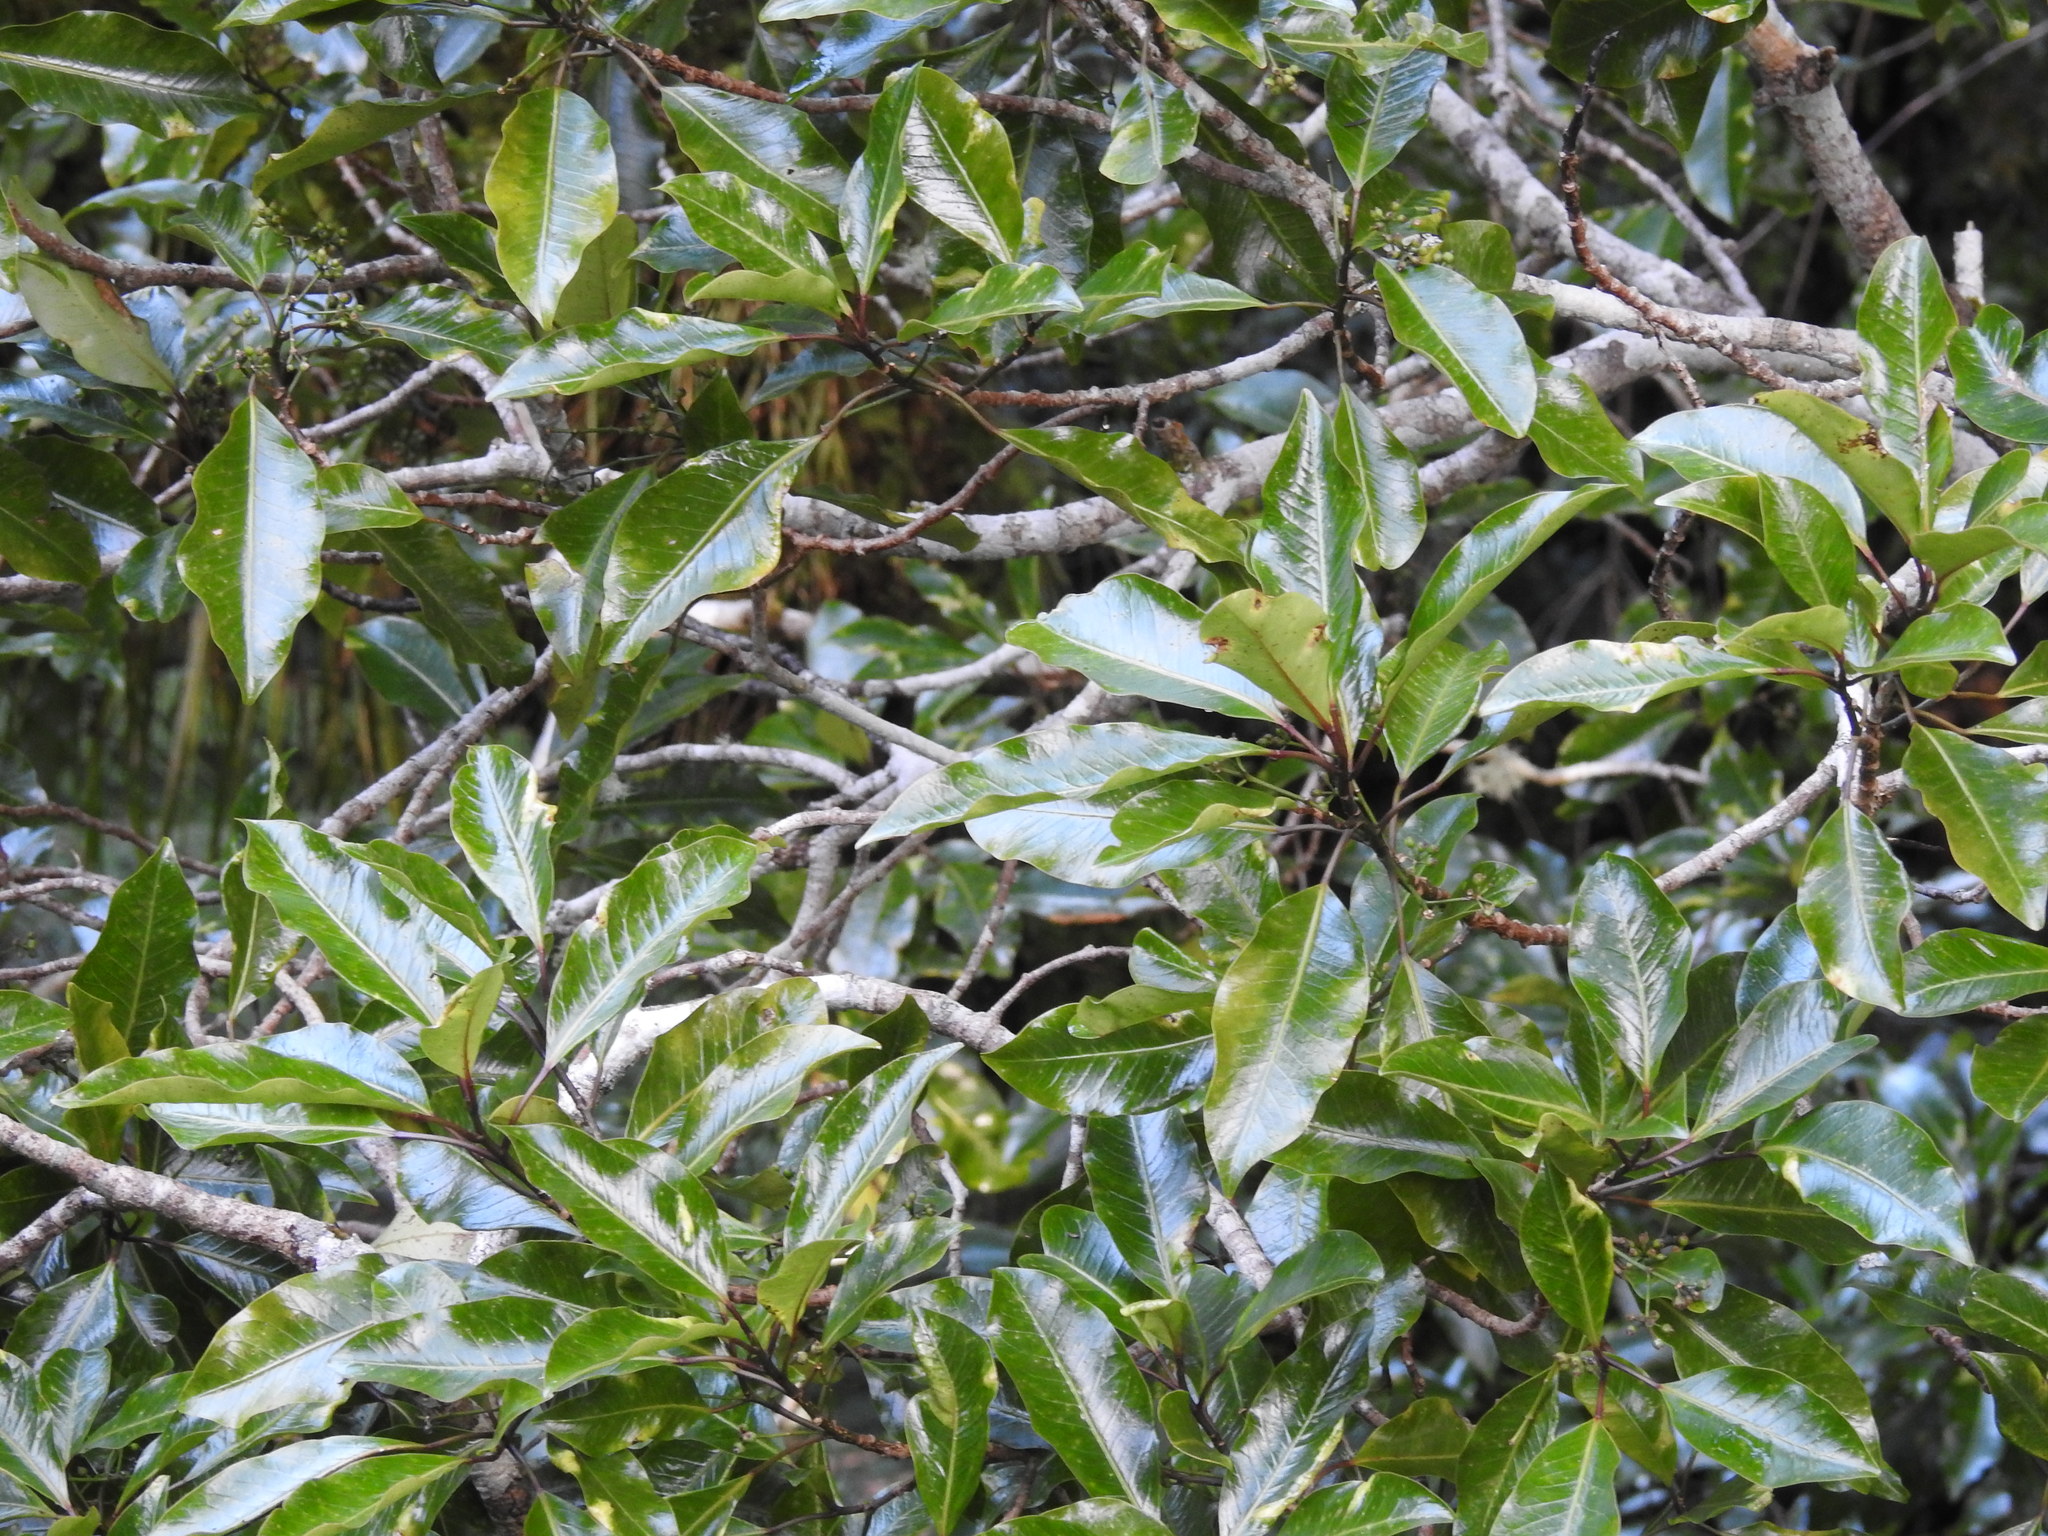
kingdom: Plantae
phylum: Tracheophyta
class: Magnoliopsida
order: Apiales
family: Araliaceae
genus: Raukaua
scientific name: Raukaua edgerleyi
